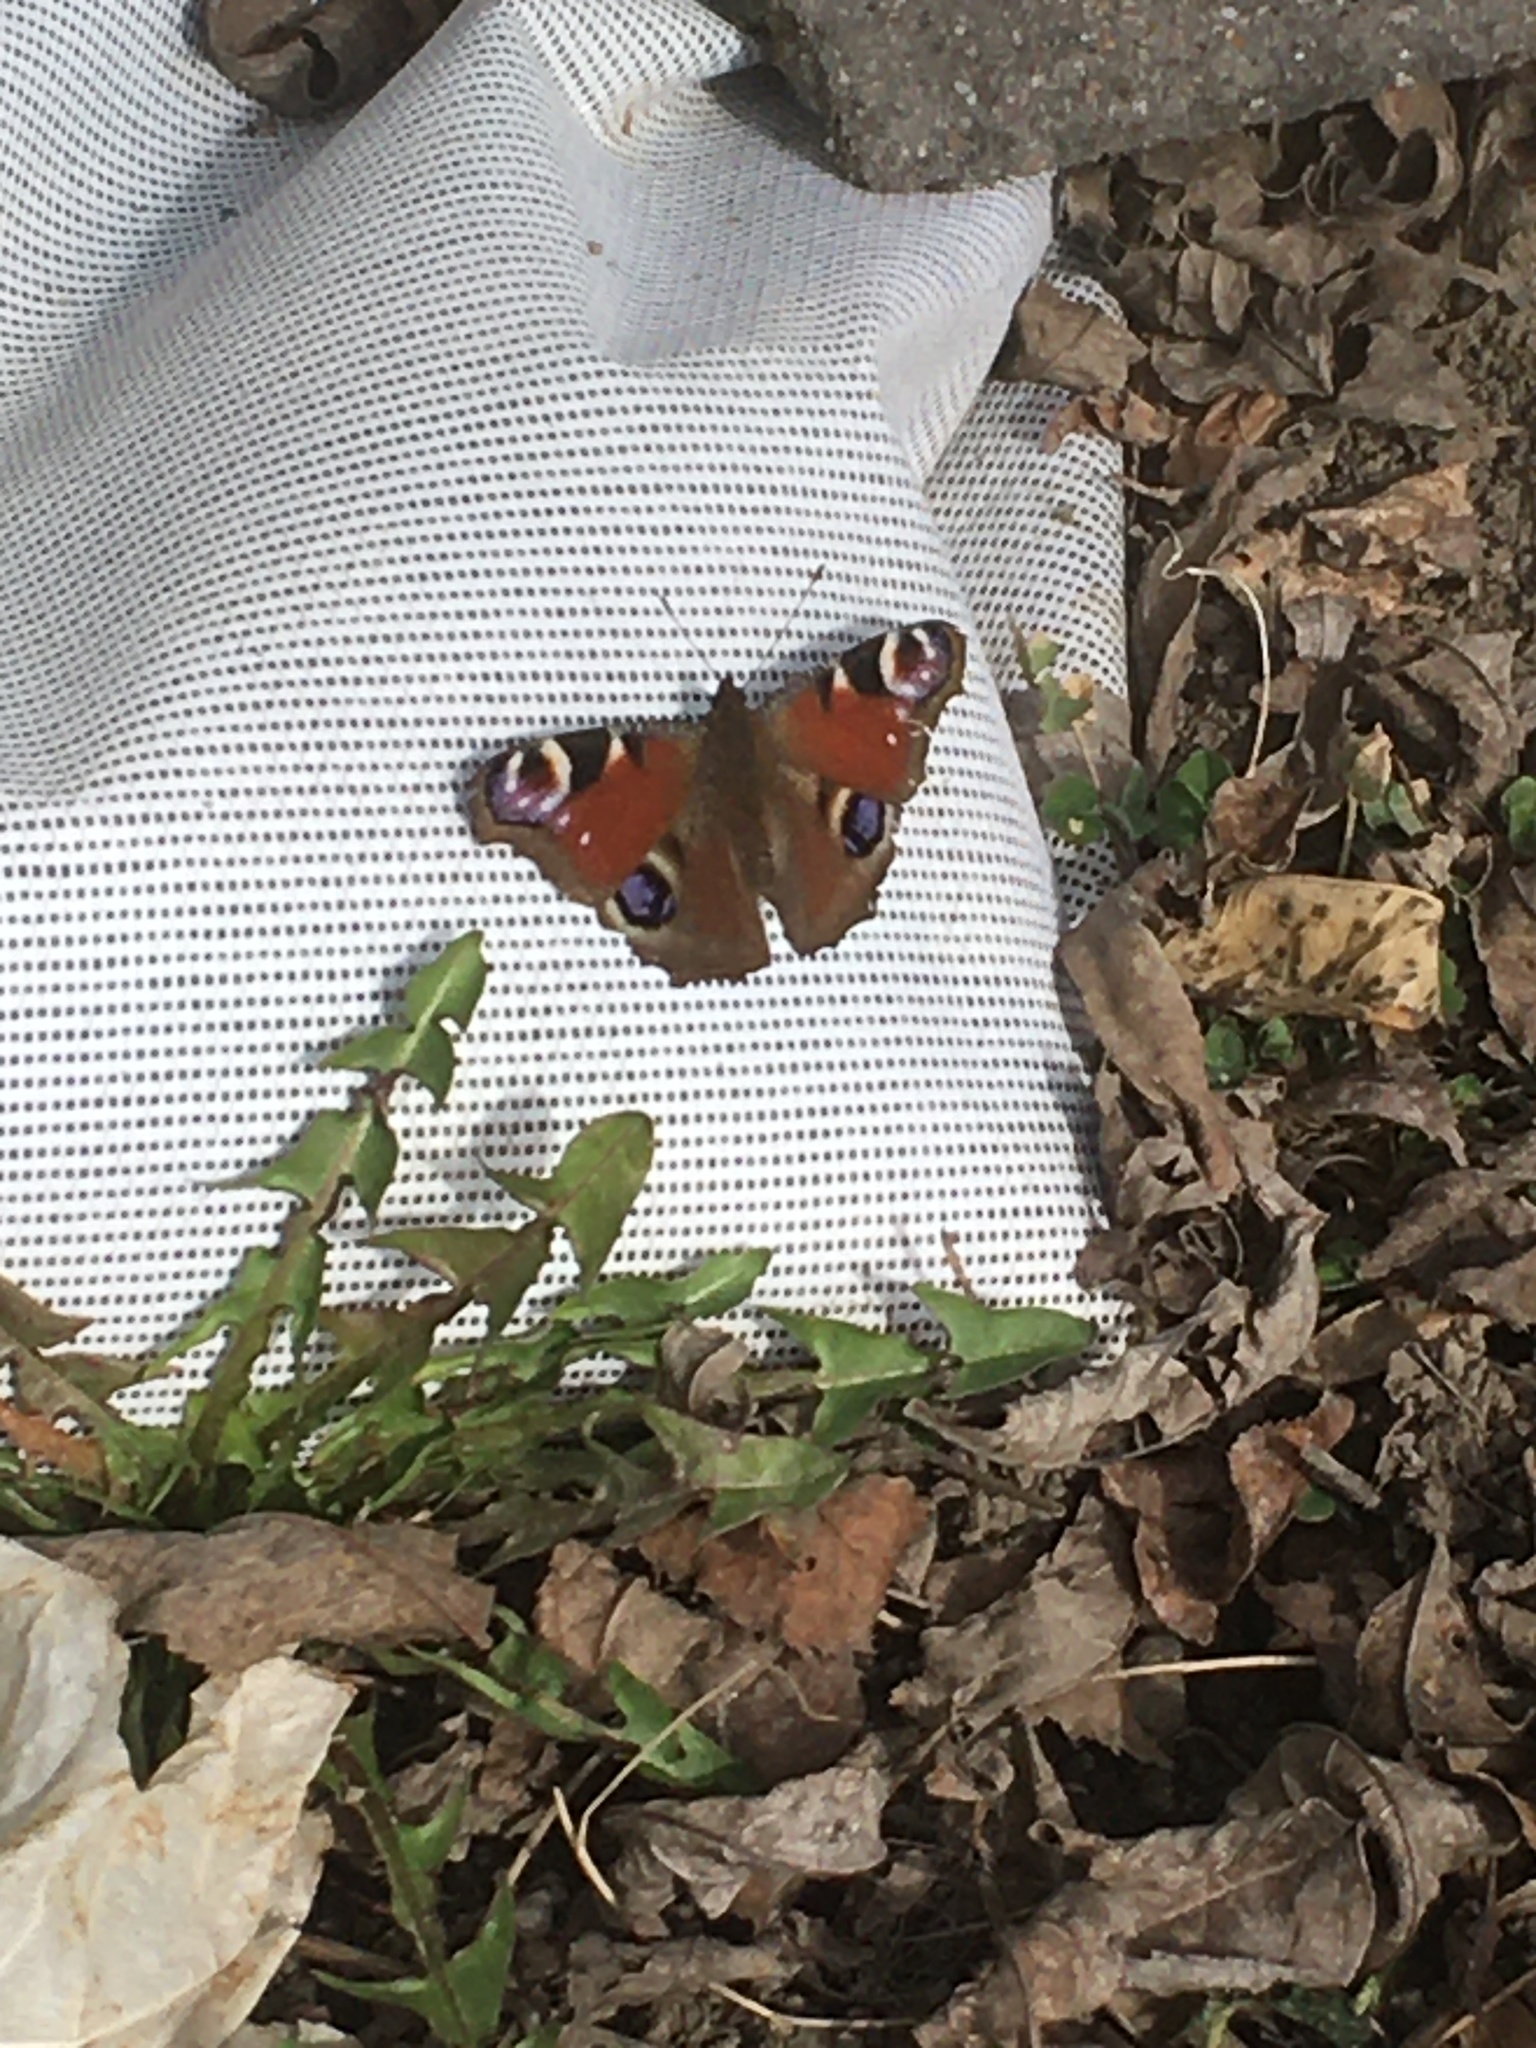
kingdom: Animalia
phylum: Arthropoda
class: Insecta
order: Lepidoptera
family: Nymphalidae
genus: Aglais
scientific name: Aglais io
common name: Peacock
